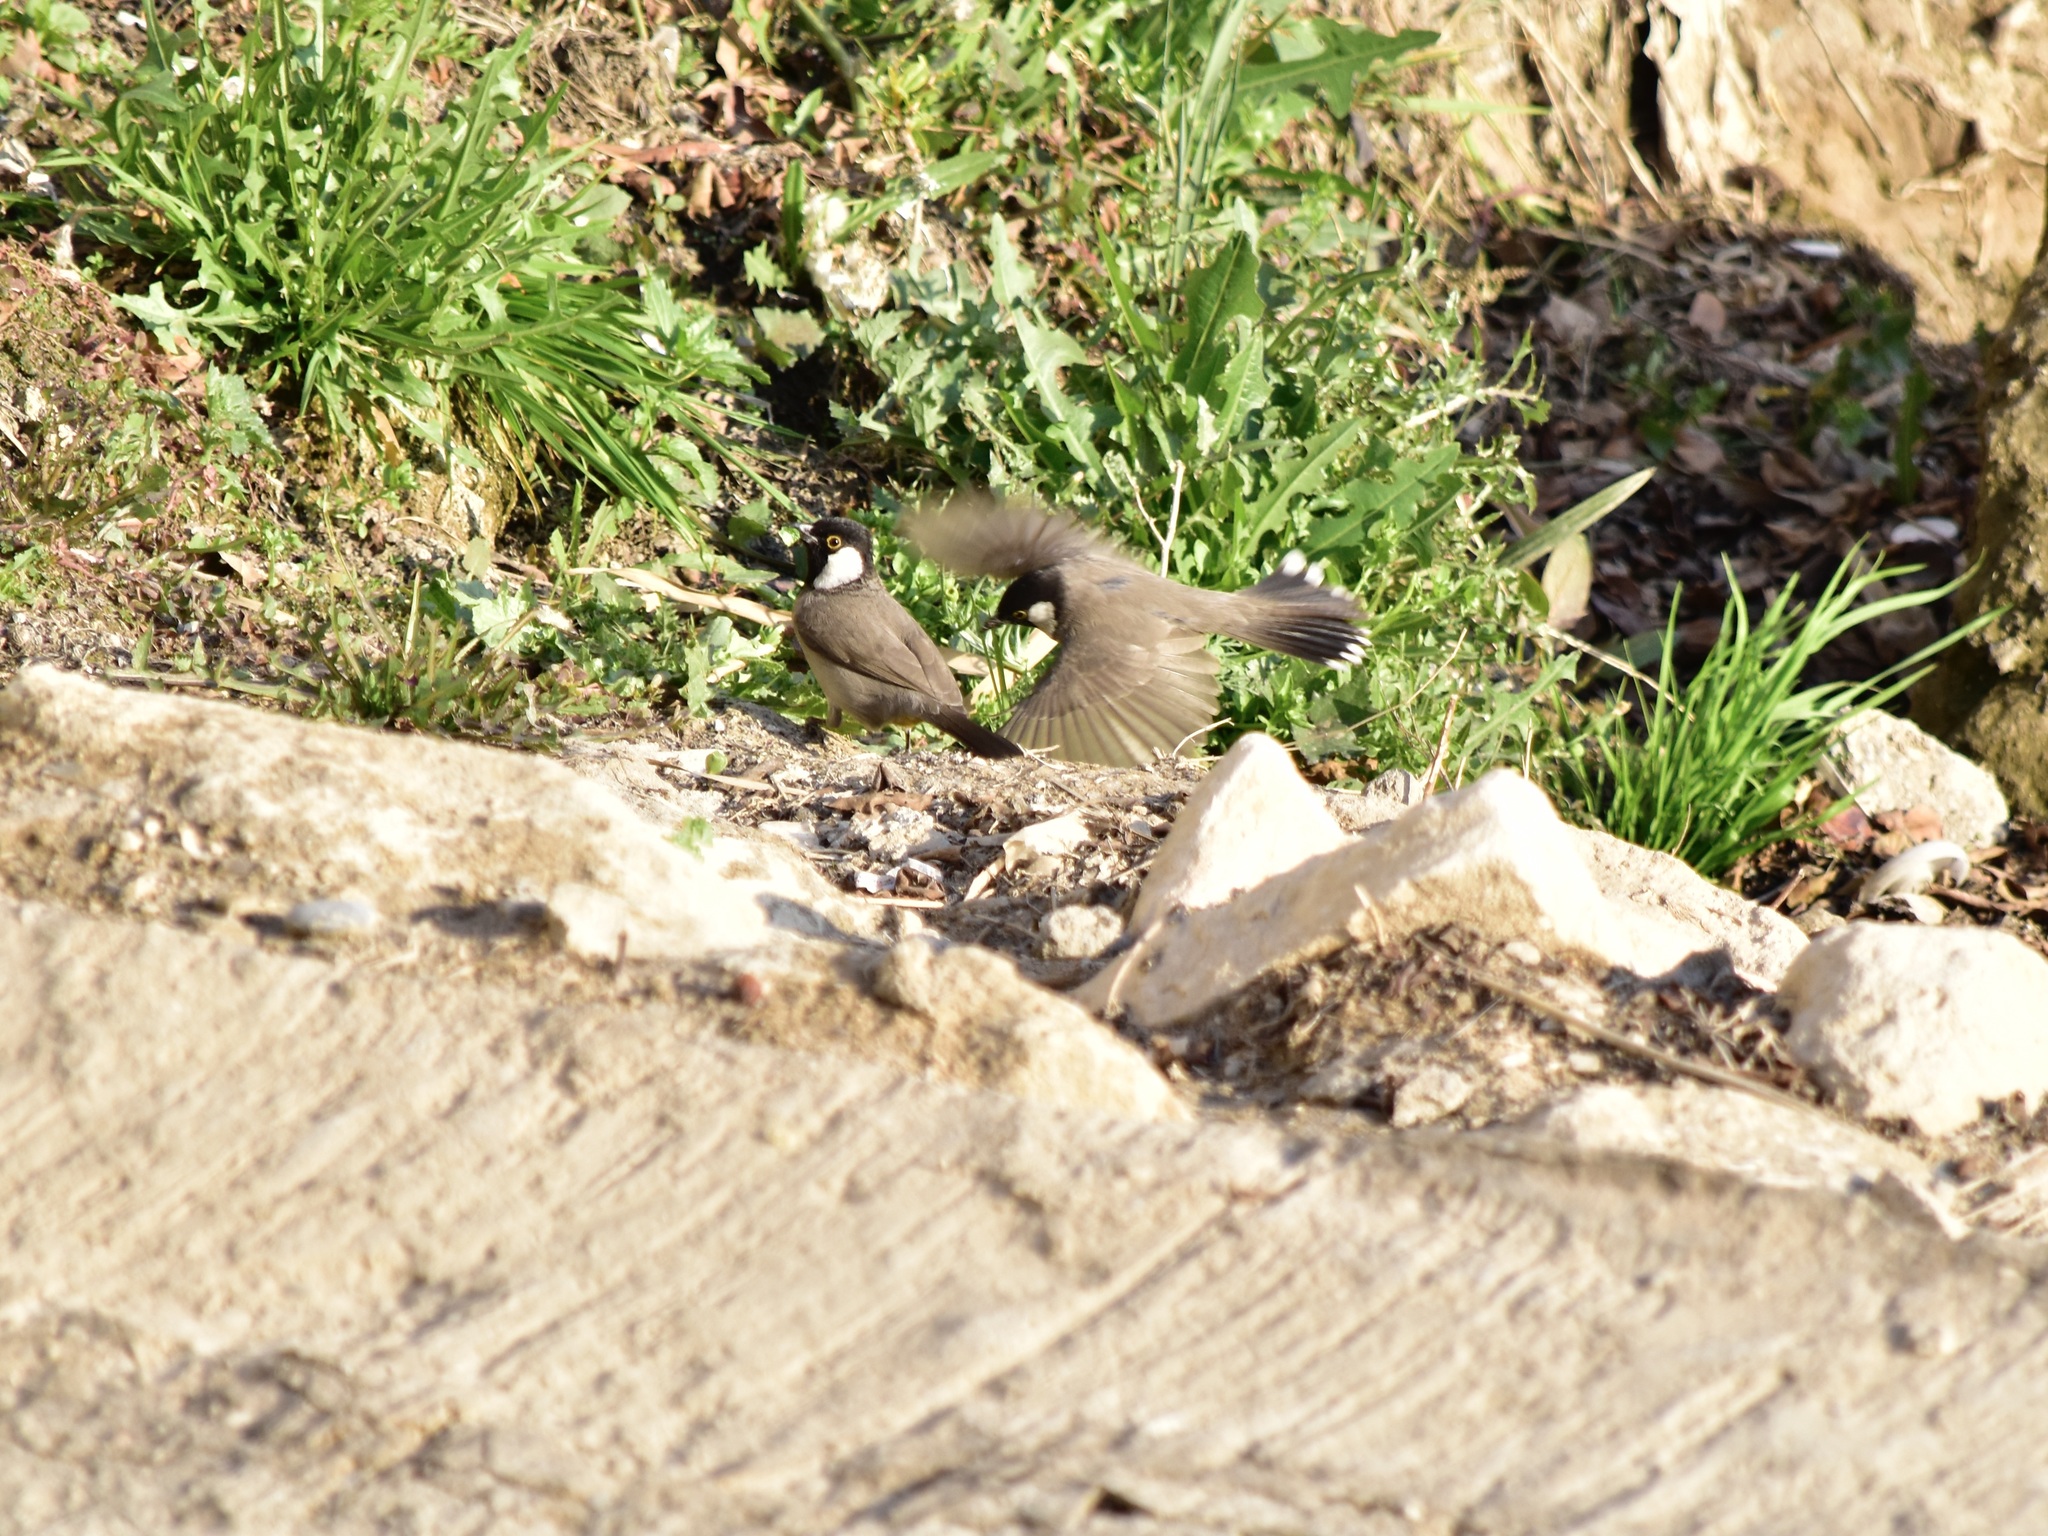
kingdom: Animalia
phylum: Chordata
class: Aves
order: Passeriformes
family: Pycnonotidae
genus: Pycnonotus
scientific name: Pycnonotus leucotis
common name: White-eared bulbul
